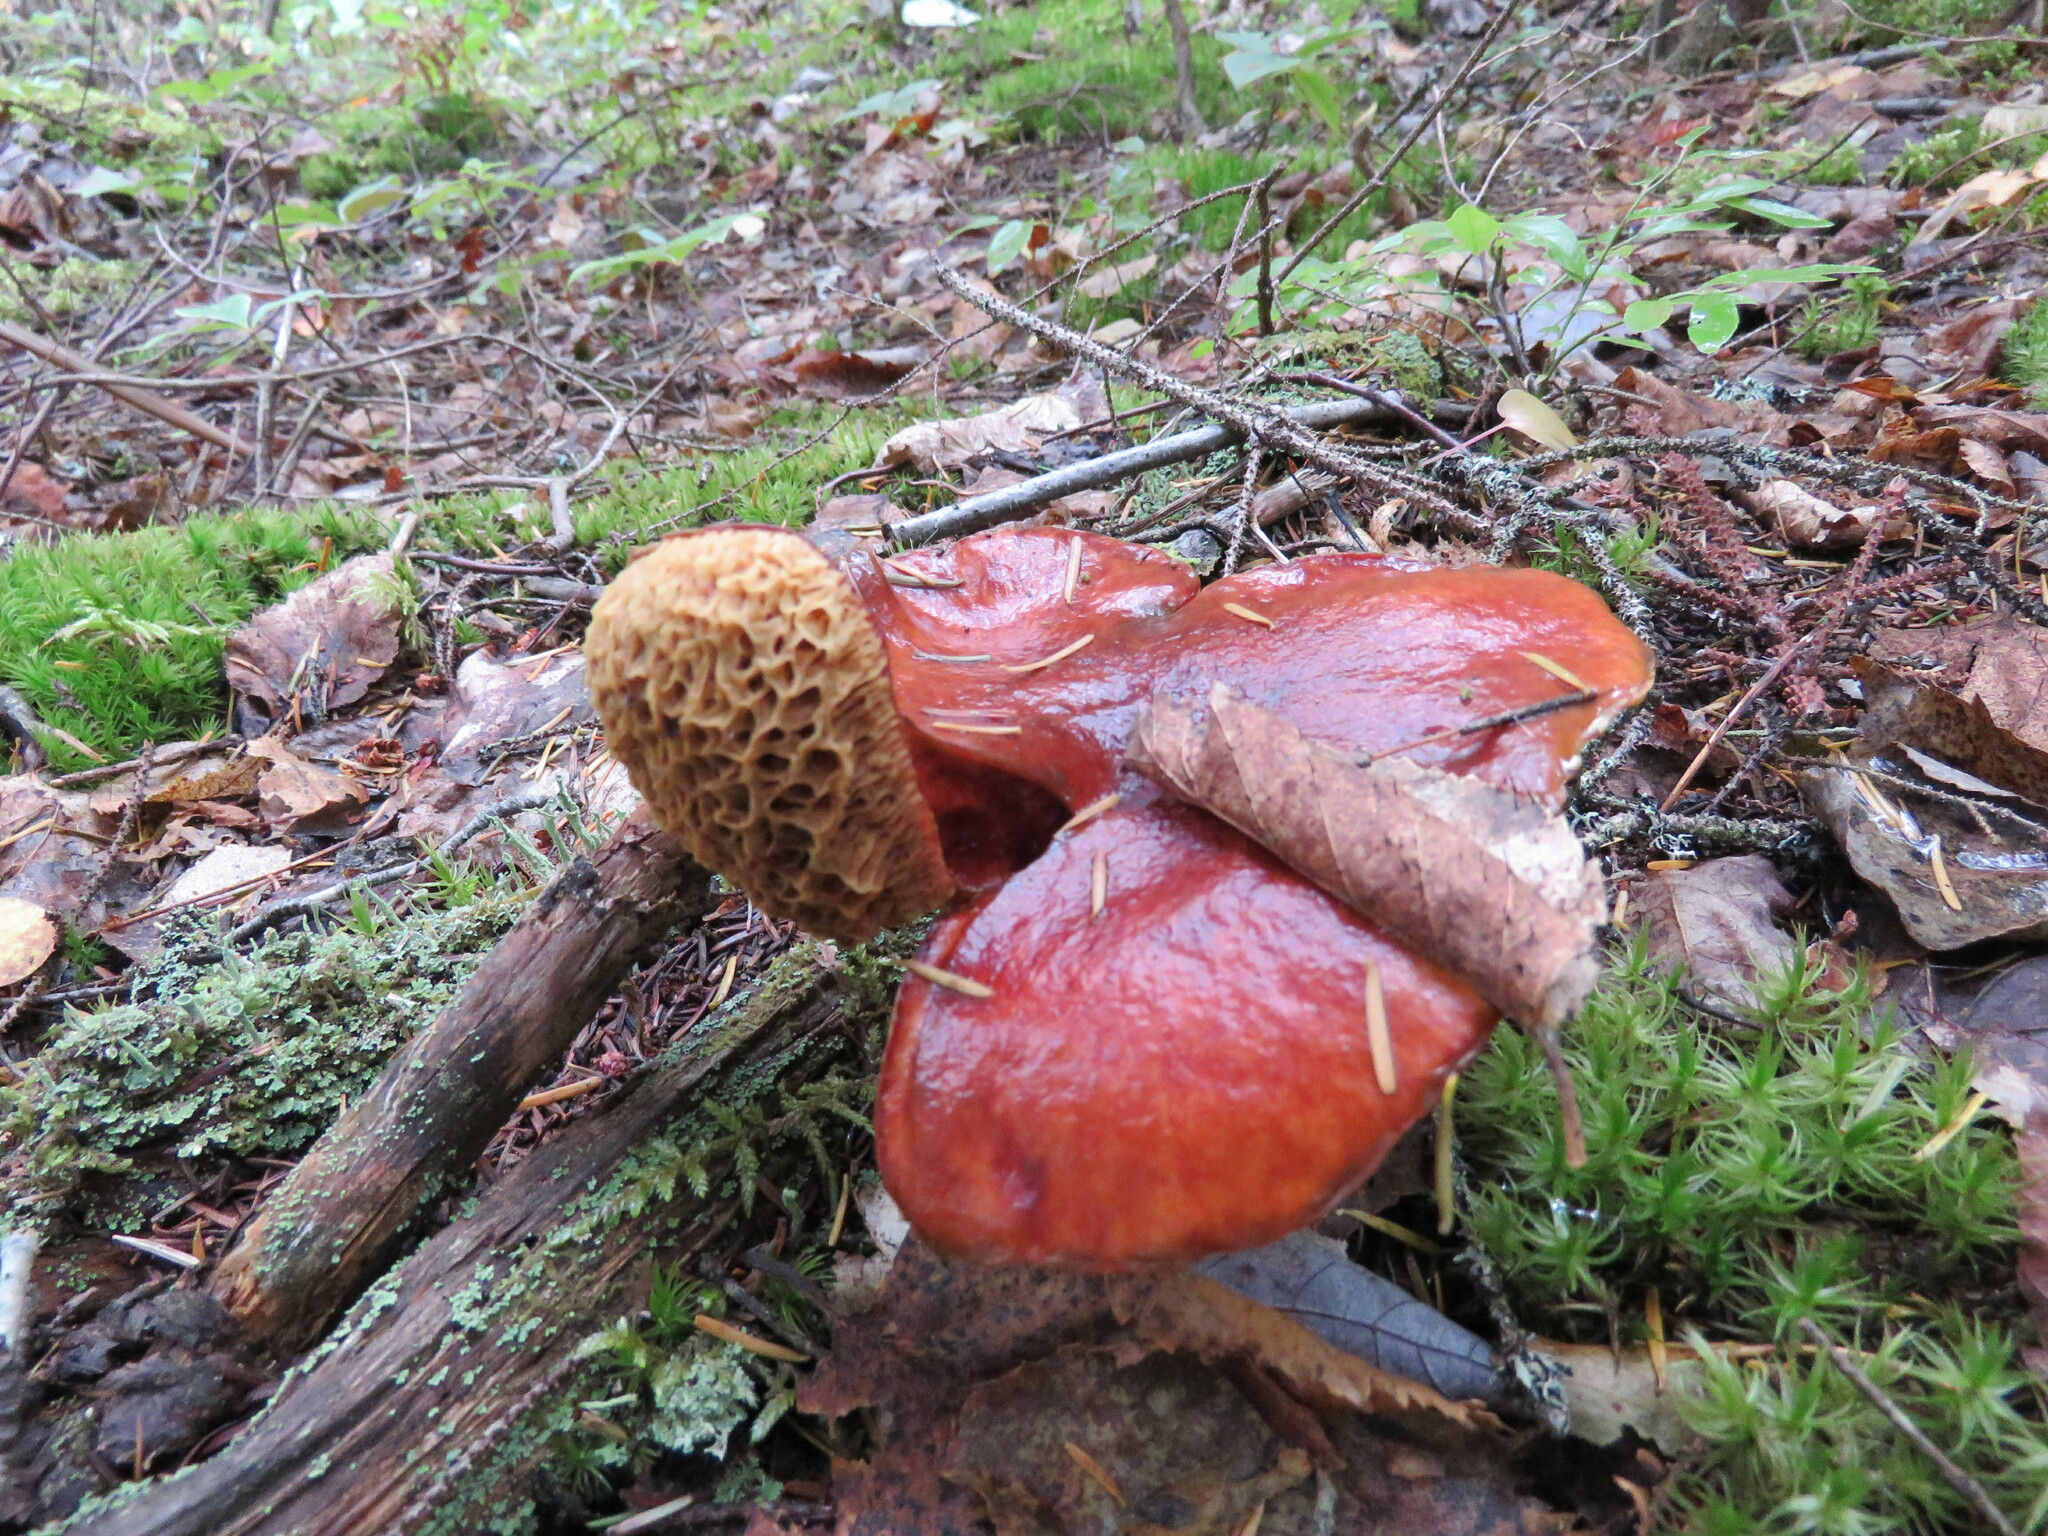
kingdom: Fungi
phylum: Basidiomycota
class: Agaricomycetes
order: Boletales
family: Suillaceae
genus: Boletinus
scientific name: Boletinus glandulosus
